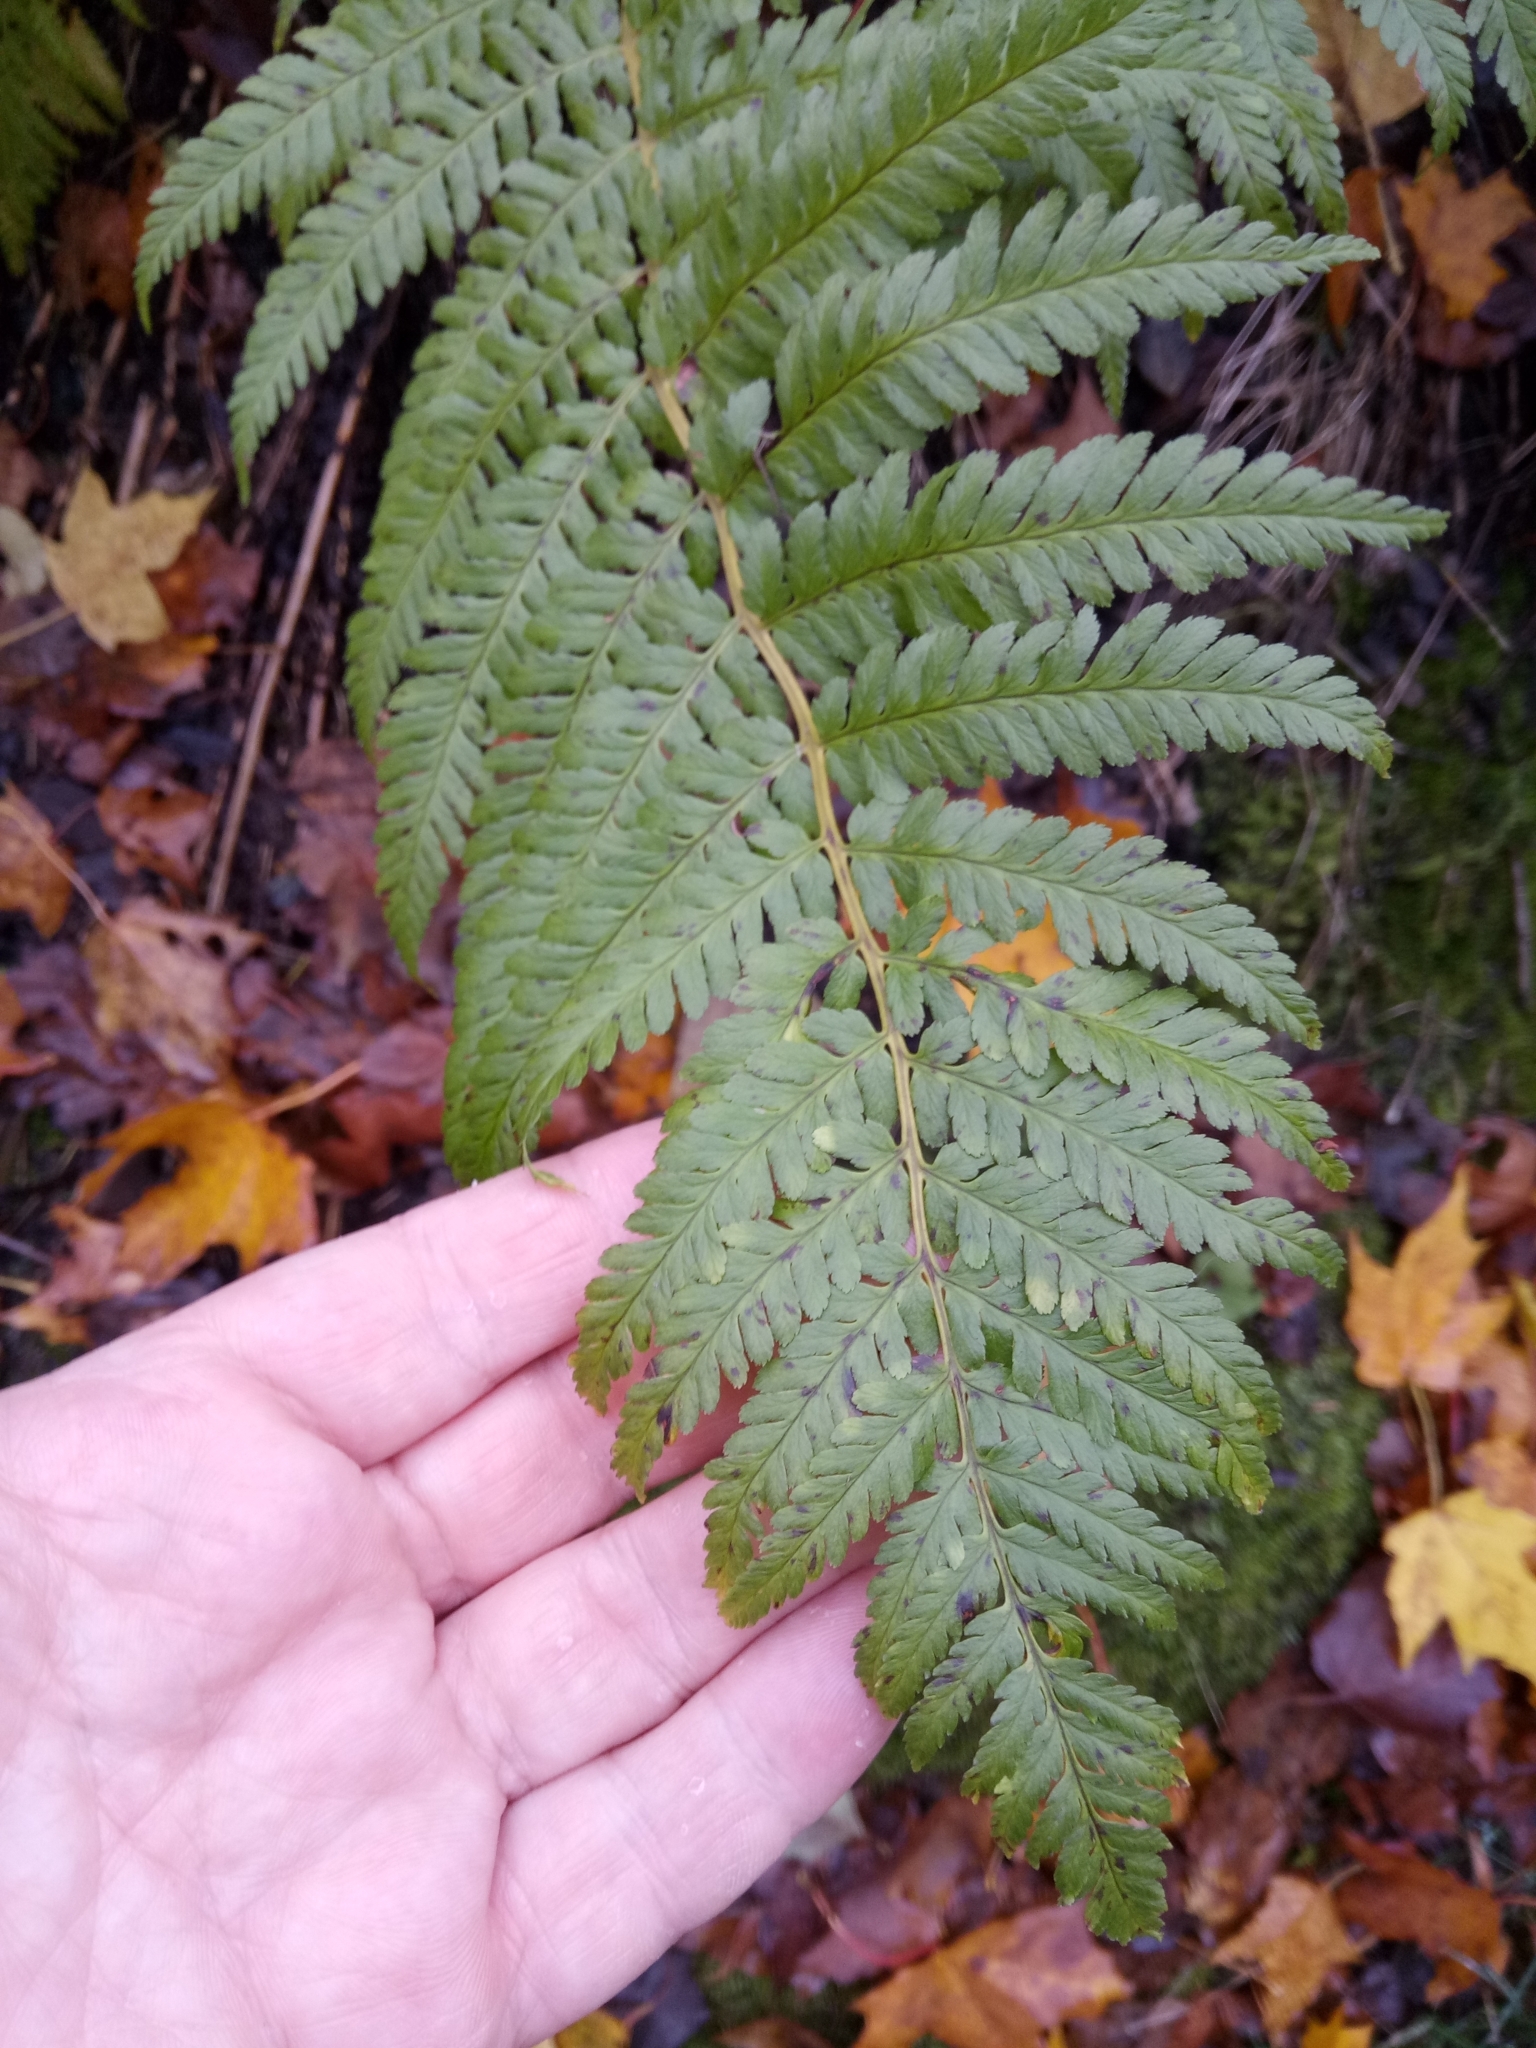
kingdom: Plantae
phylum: Tracheophyta
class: Polypodiopsida
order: Polypodiales
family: Dryopteridaceae
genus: Dryopteris
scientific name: Dryopteris filix-mas
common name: Male fern
